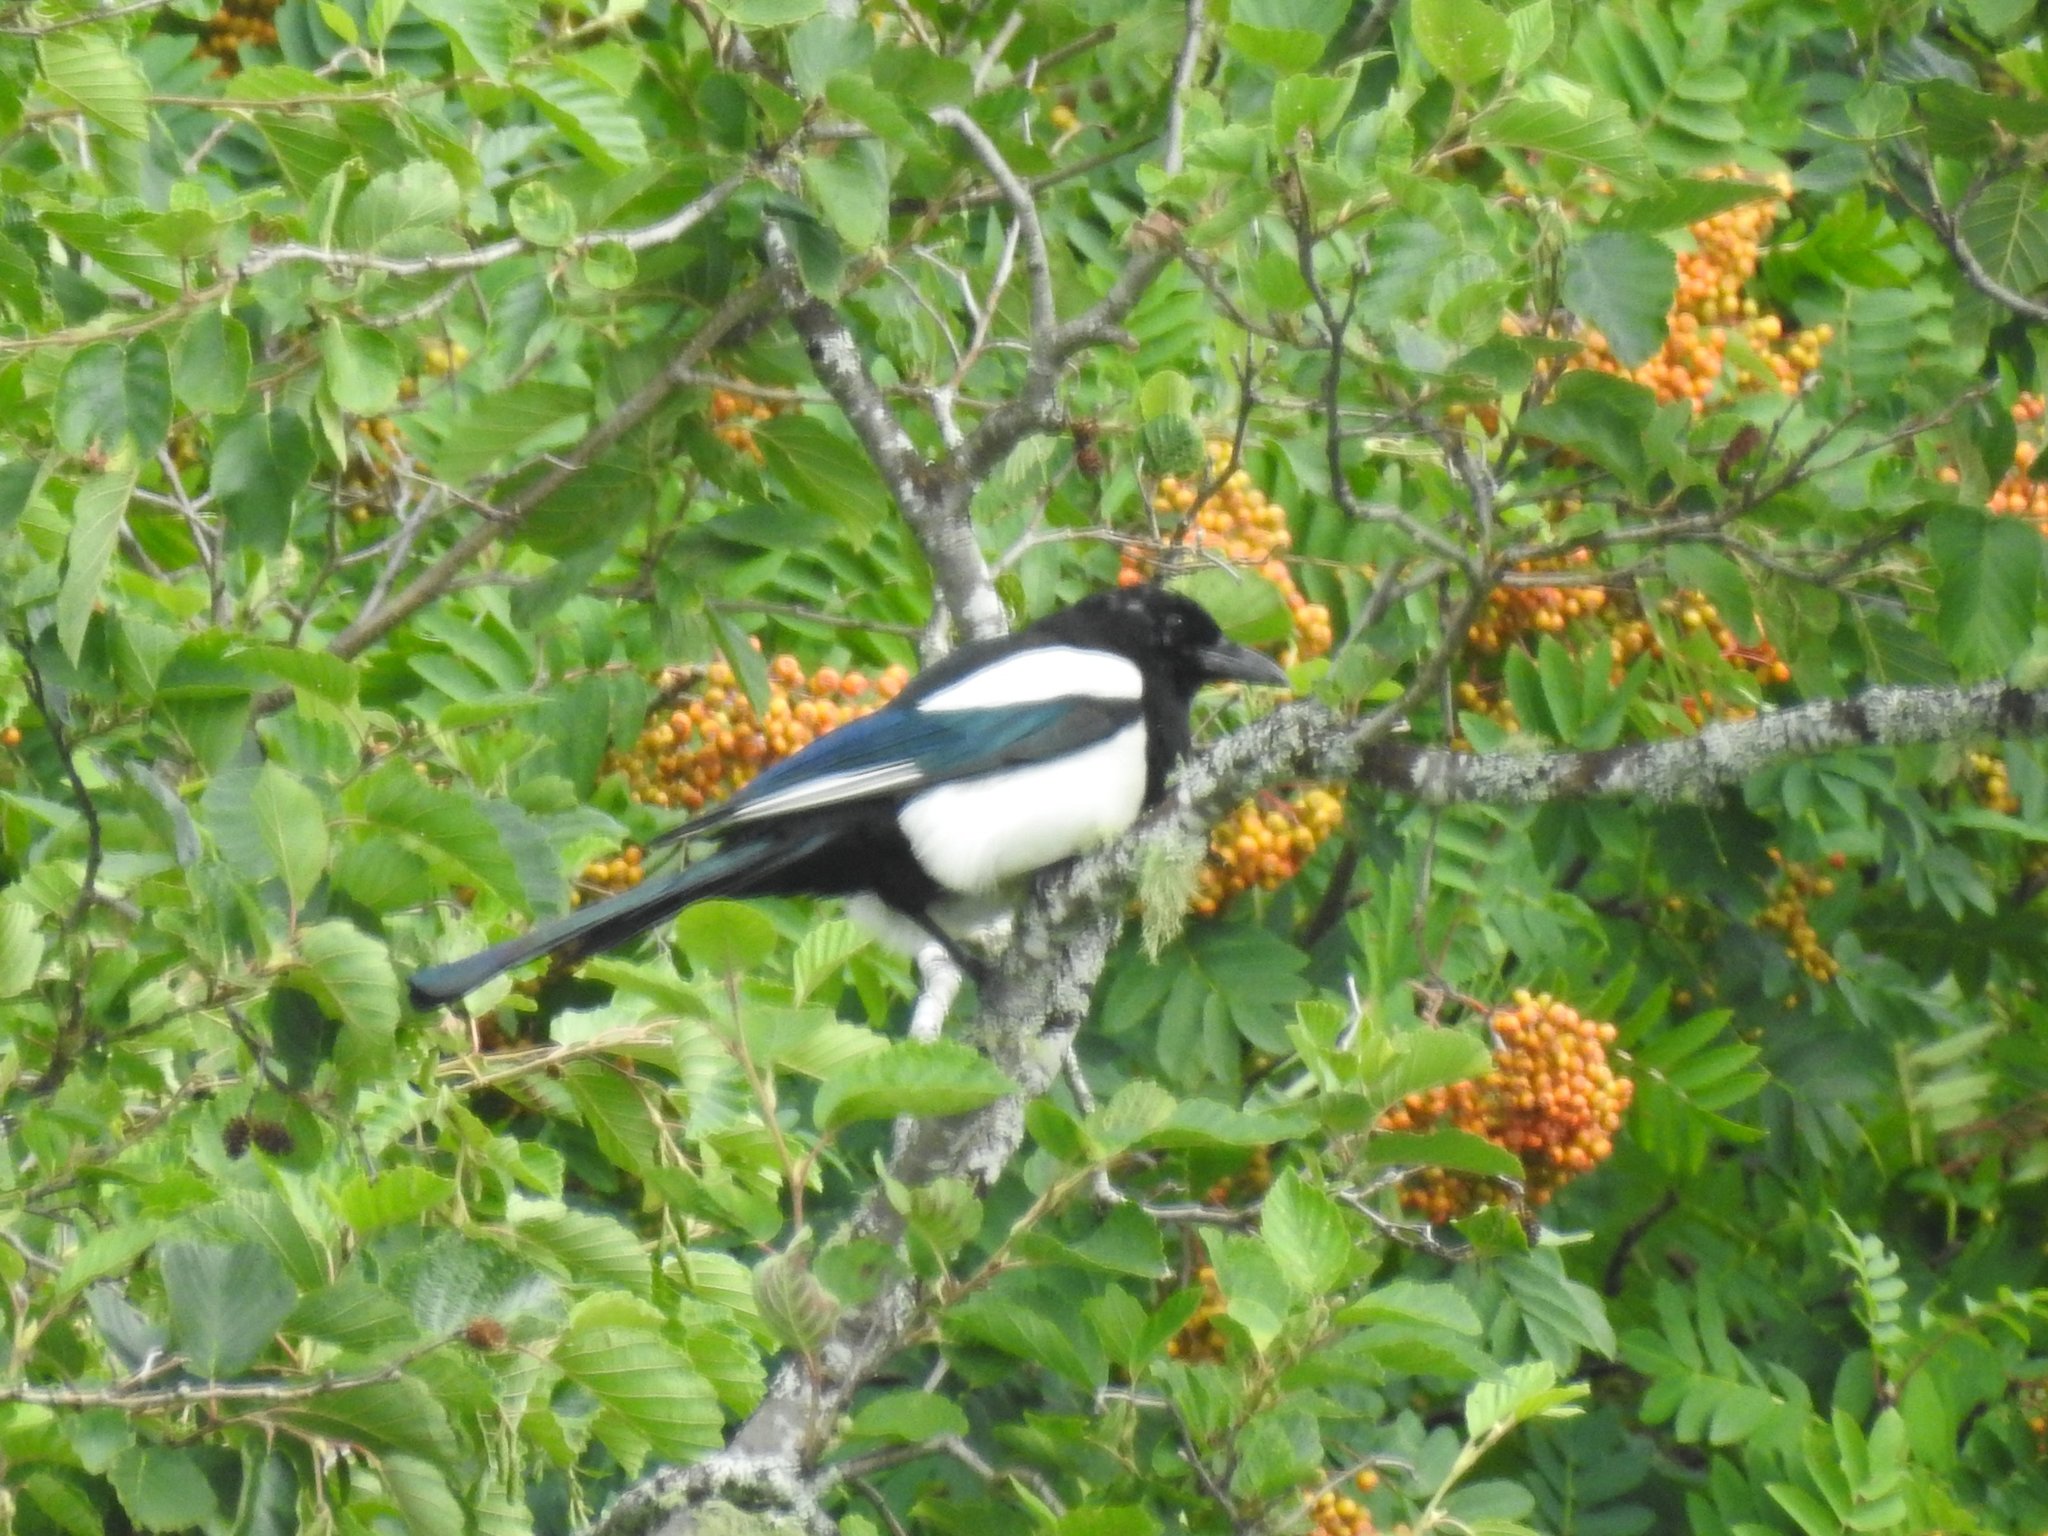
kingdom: Animalia
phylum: Chordata
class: Aves
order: Passeriformes
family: Corvidae
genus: Pica
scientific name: Pica pica
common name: Eurasian magpie
